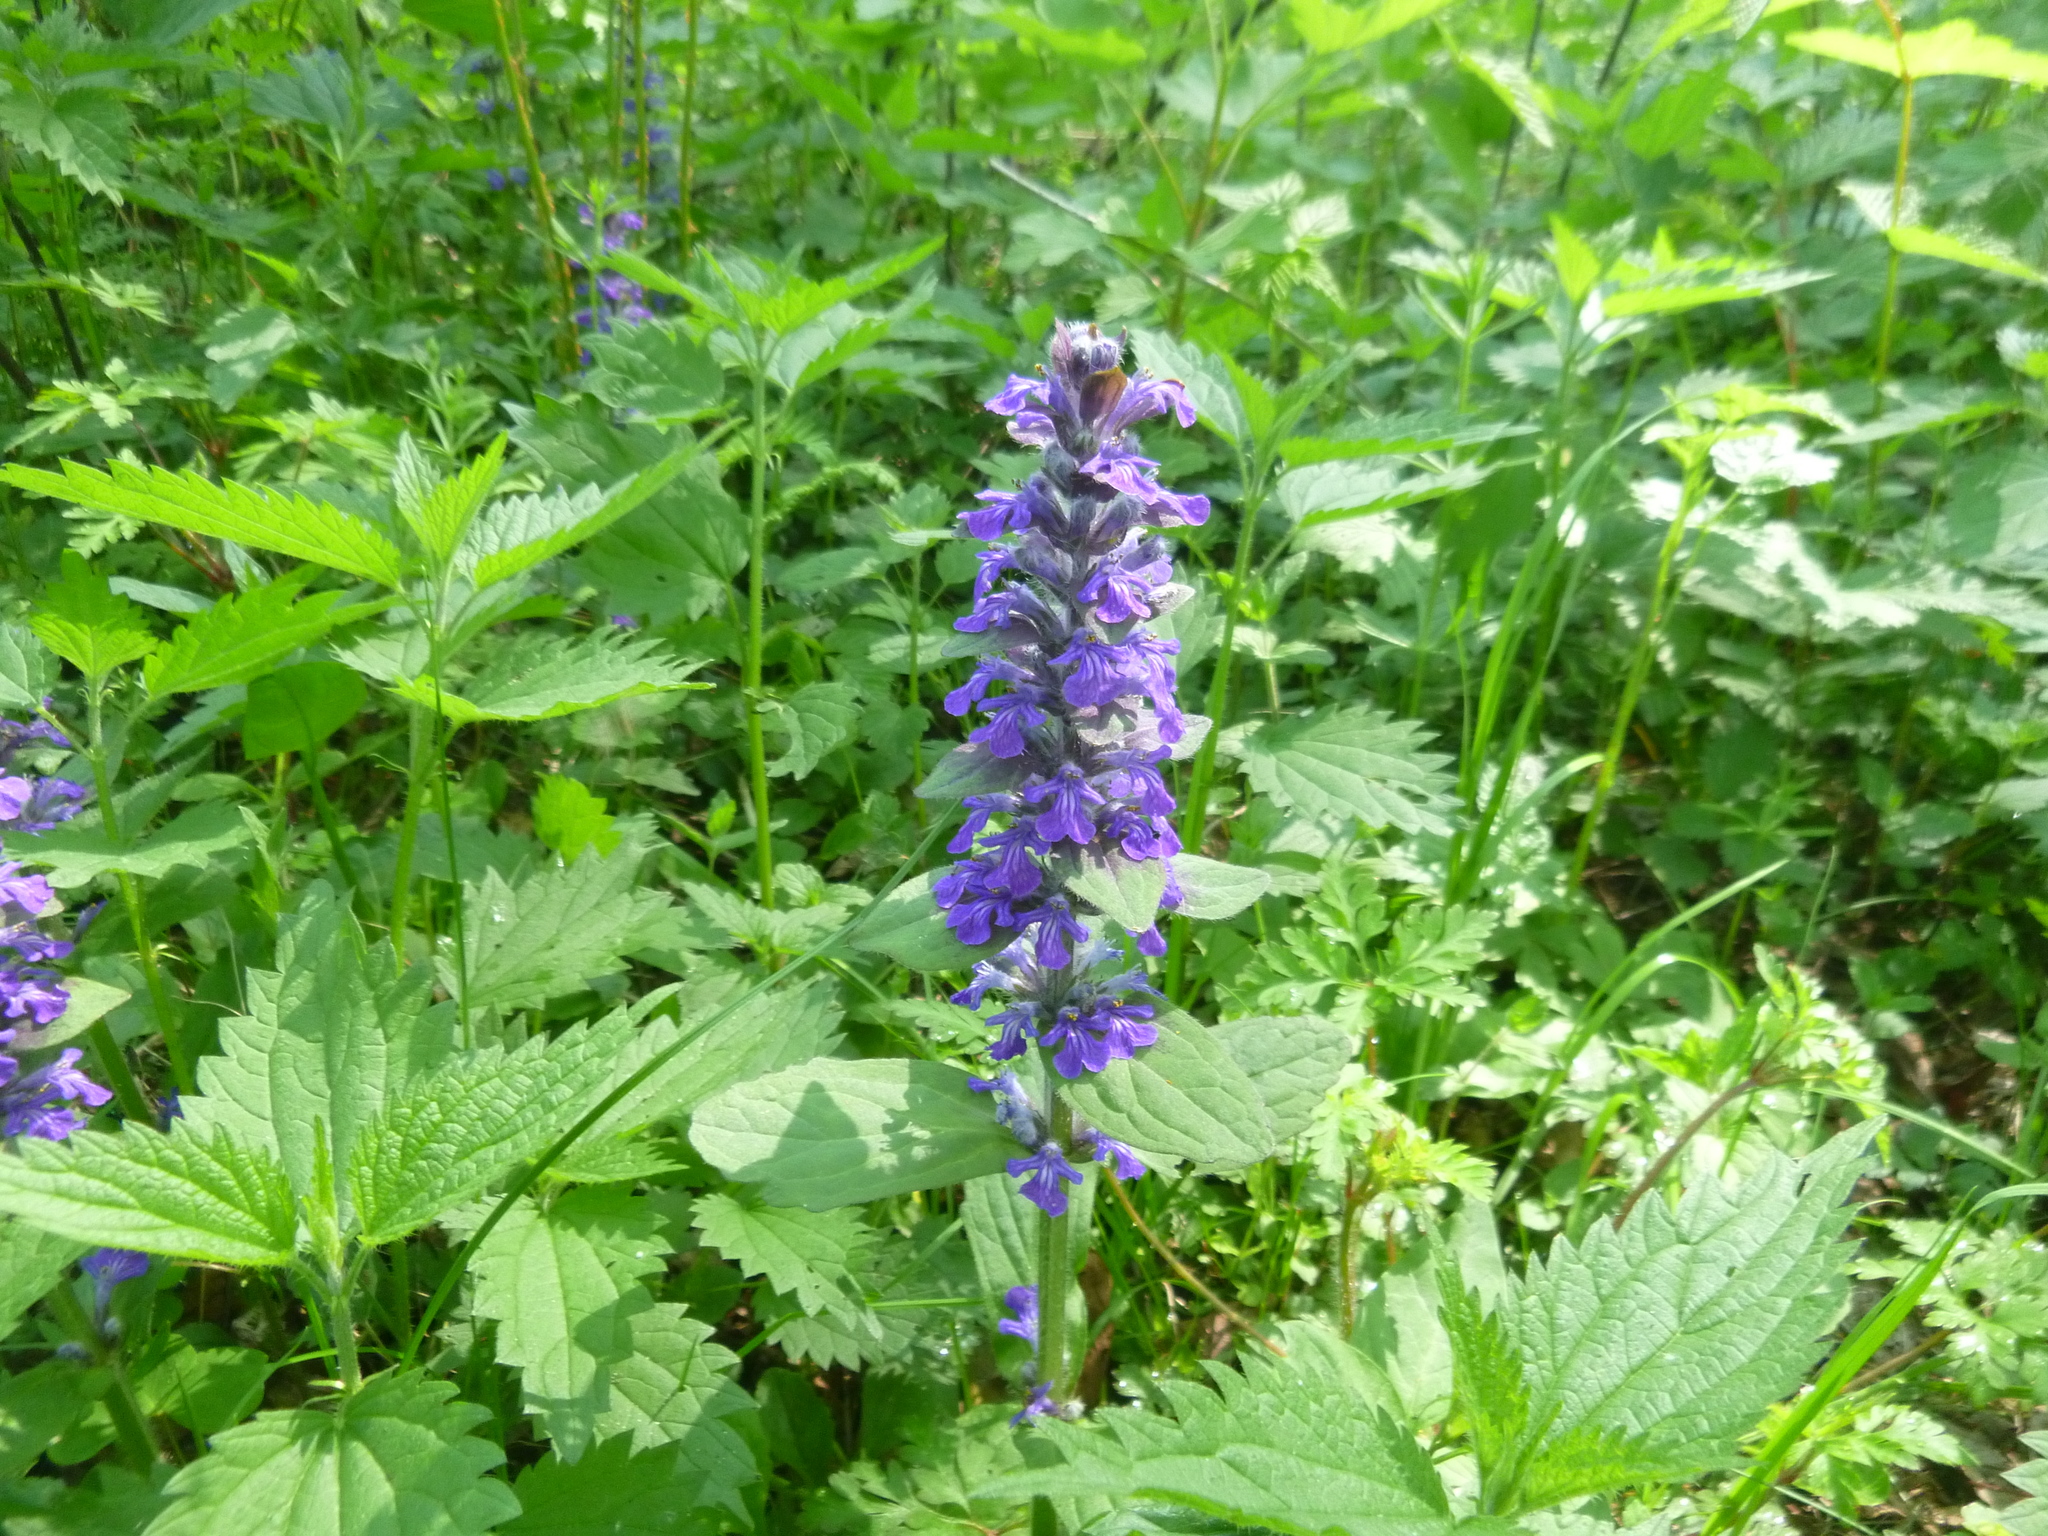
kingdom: Plantae
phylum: Tracheophyta
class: Magnoliopsida
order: Lamiales
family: Lamiaceae
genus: Ajuga
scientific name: Ajuga reptans
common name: Bugle
